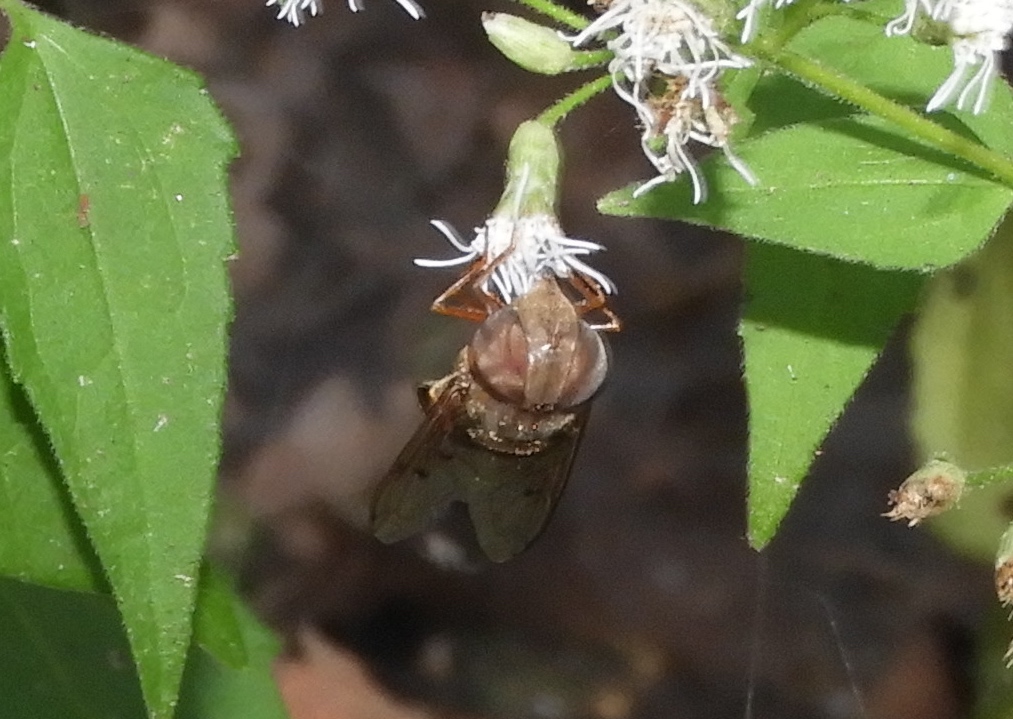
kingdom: Animalia
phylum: Arthropoda
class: Insecta
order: Diptera
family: Syrphidae
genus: Copestylum
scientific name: Copestylum macrocephalum
